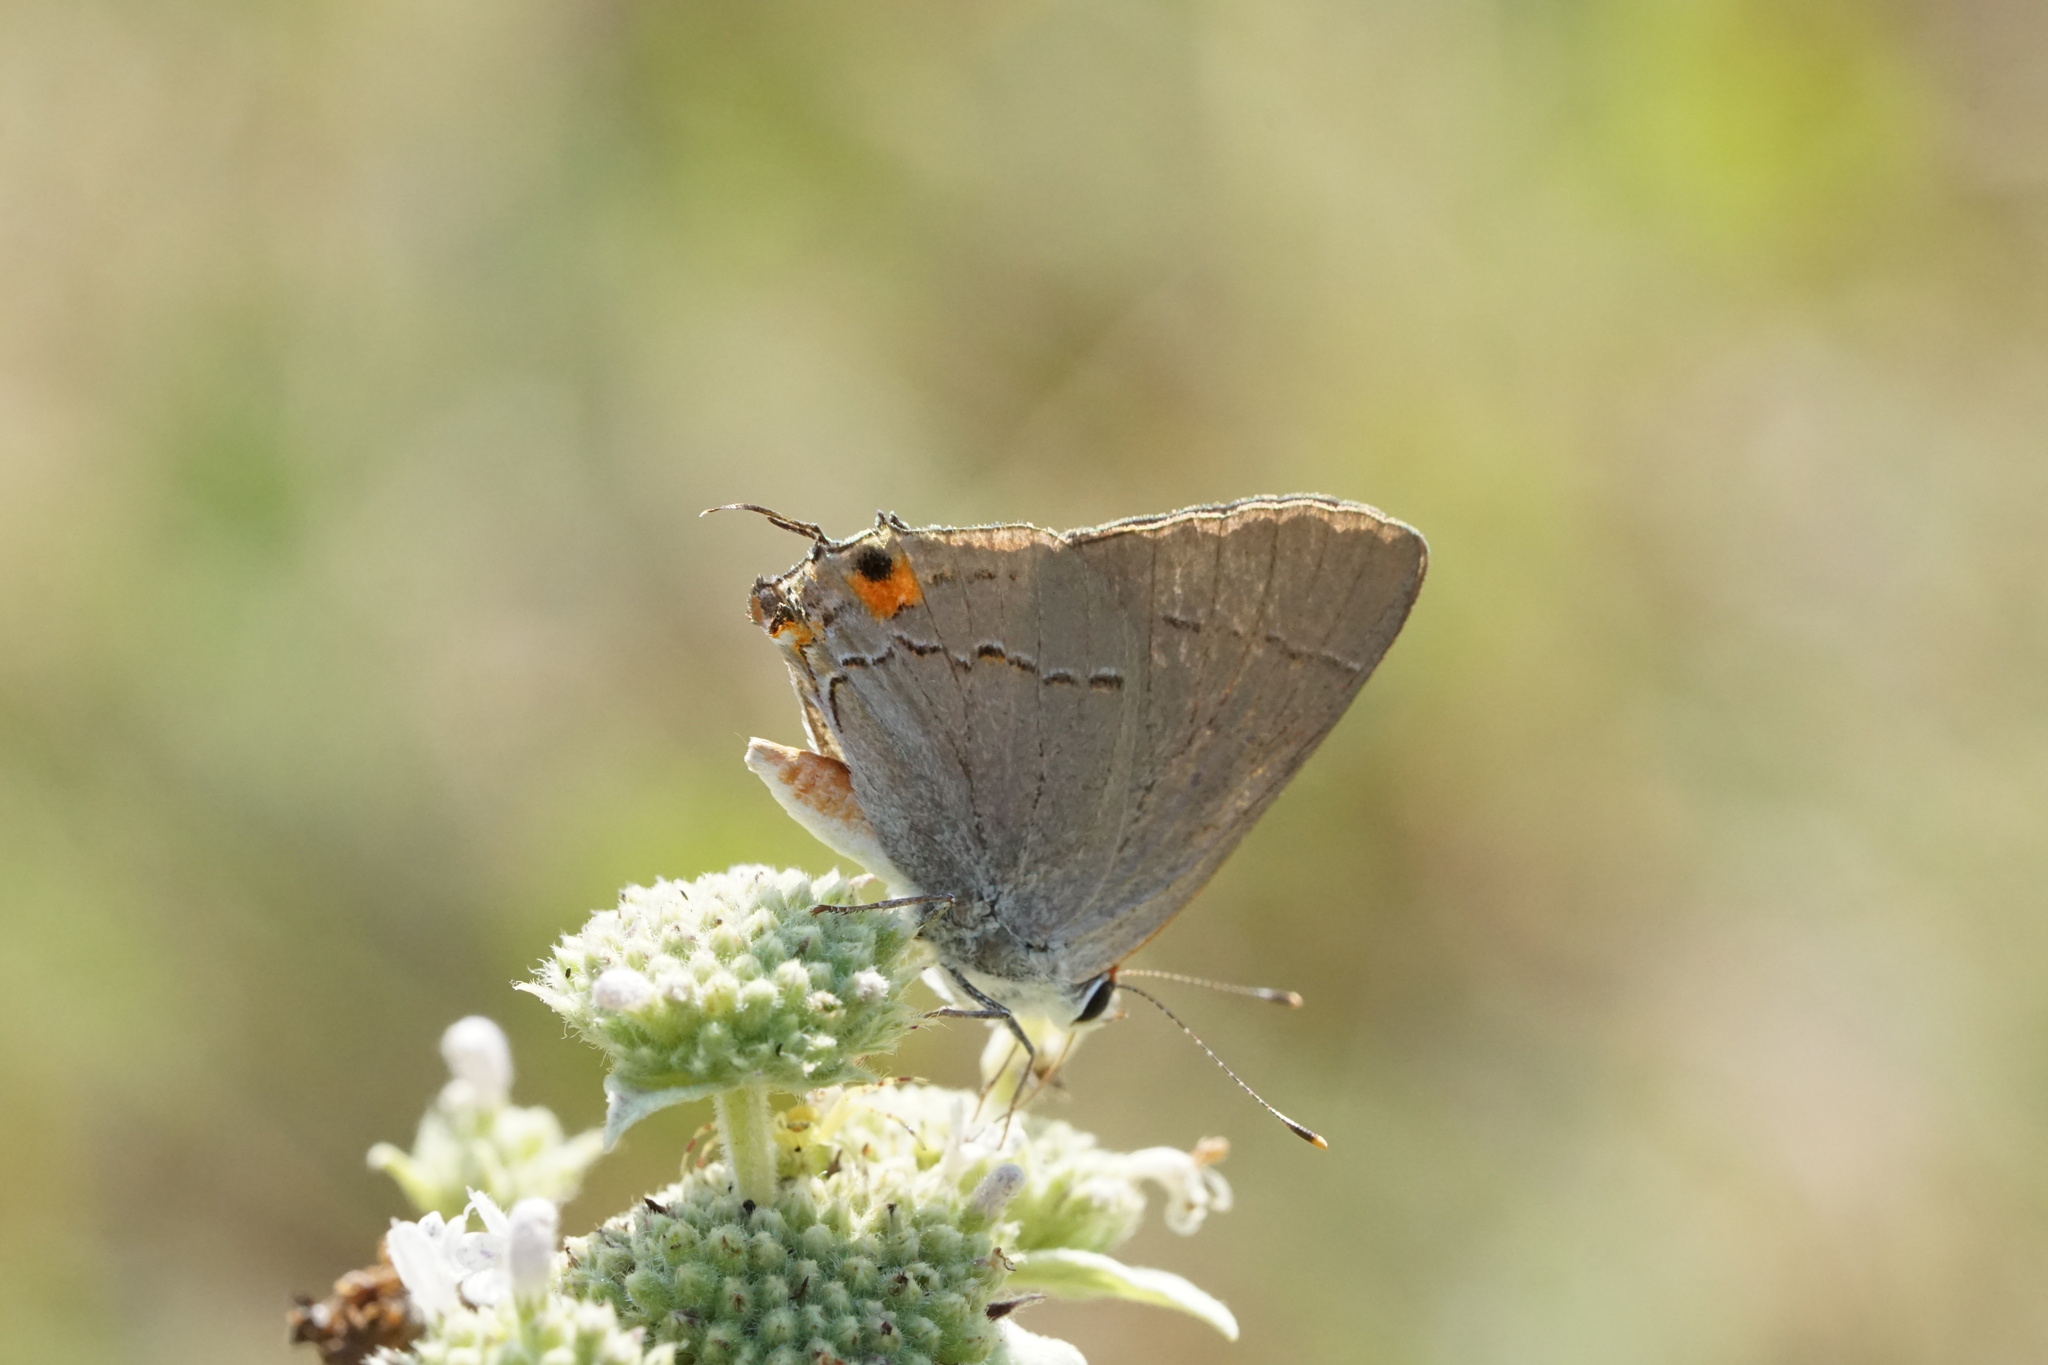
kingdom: Animalia
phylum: Arthropoda
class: Insecta
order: Lepidoptera
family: Lycaenidae
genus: Strymon
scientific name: Strymon melinus
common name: Gray hairstreak
